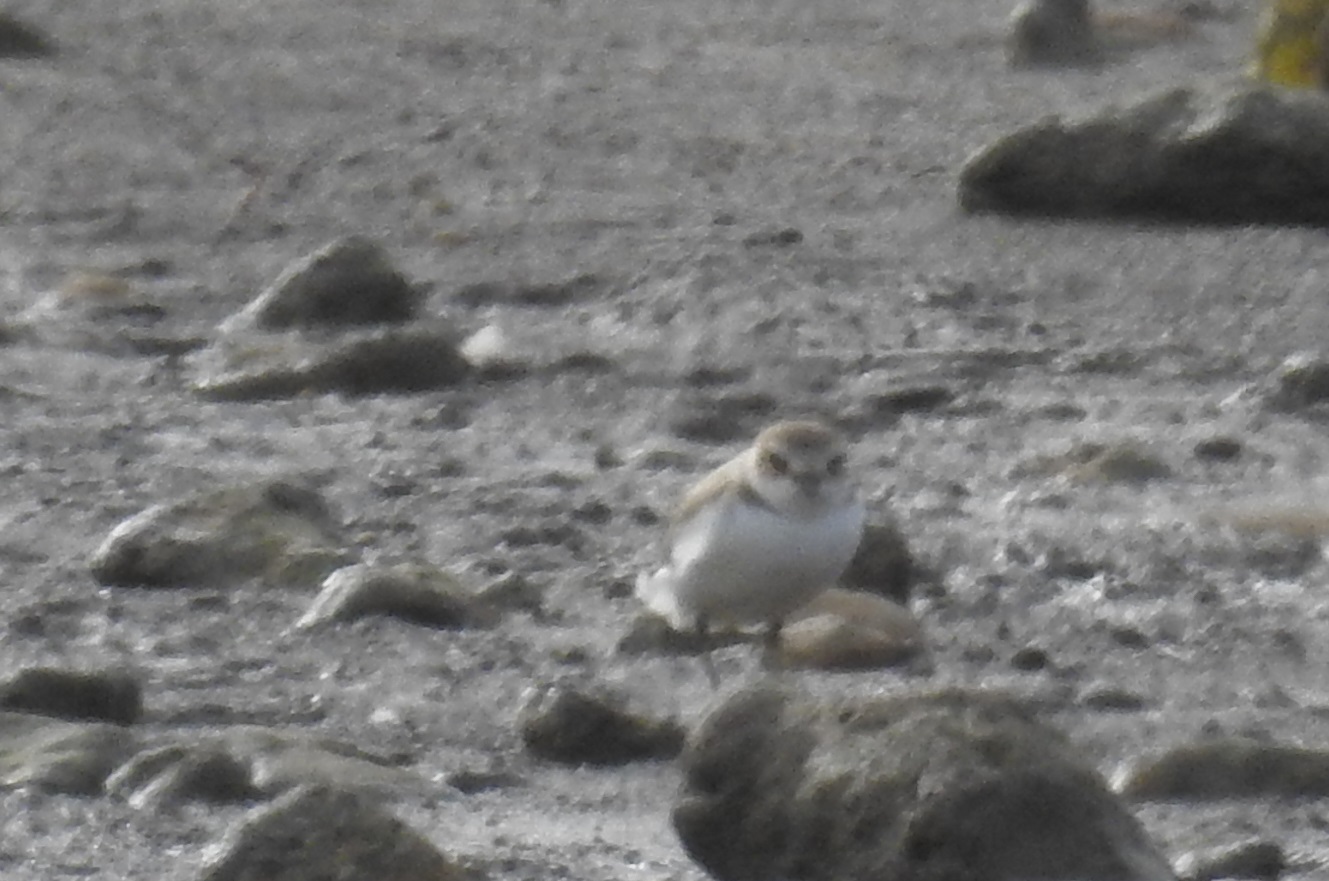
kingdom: Animalia
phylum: Chordata
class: Aves
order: Charadriiformes
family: Charadriidae
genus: Charadrius
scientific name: Charadrius alexandrinus
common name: Kentish plover
